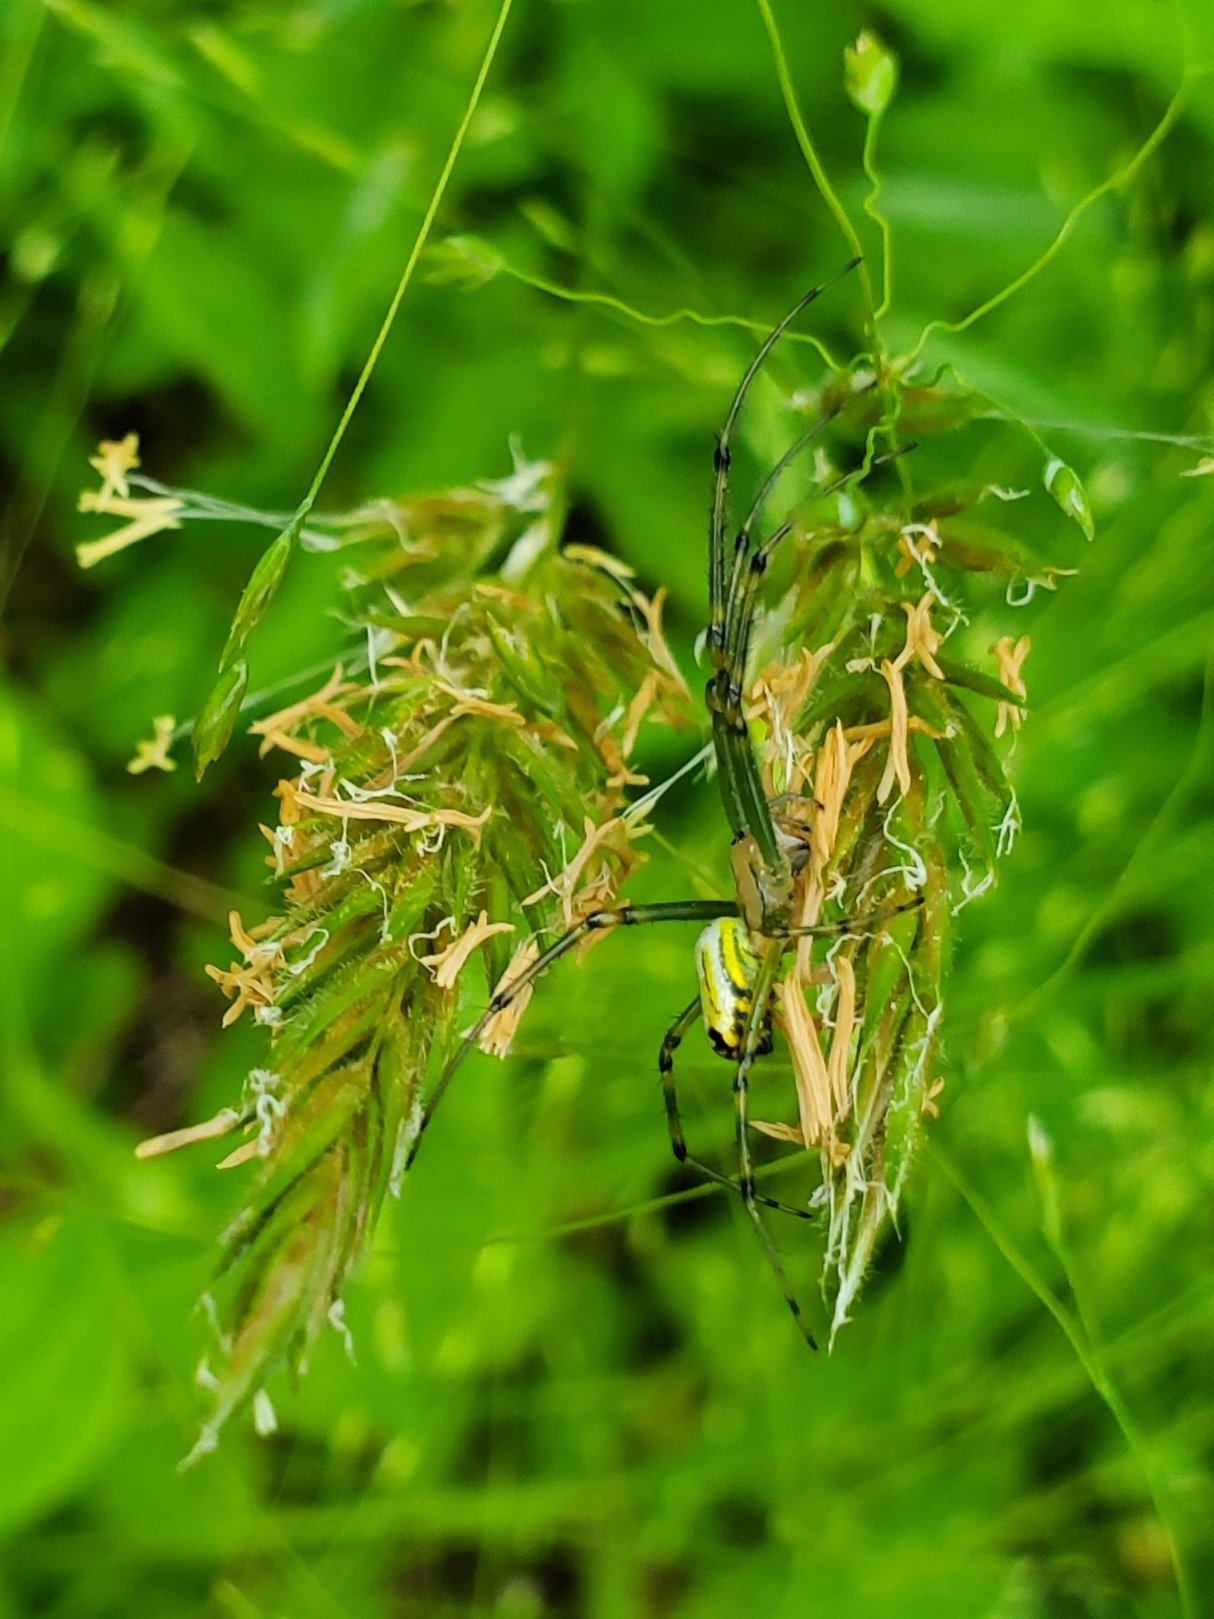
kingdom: Animalia
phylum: Arthropoda
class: Arachnida
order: Araneae
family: Tetragnathidae
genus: Leucauge
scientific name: Leucauge venusta
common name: Longjawed orb weavers
